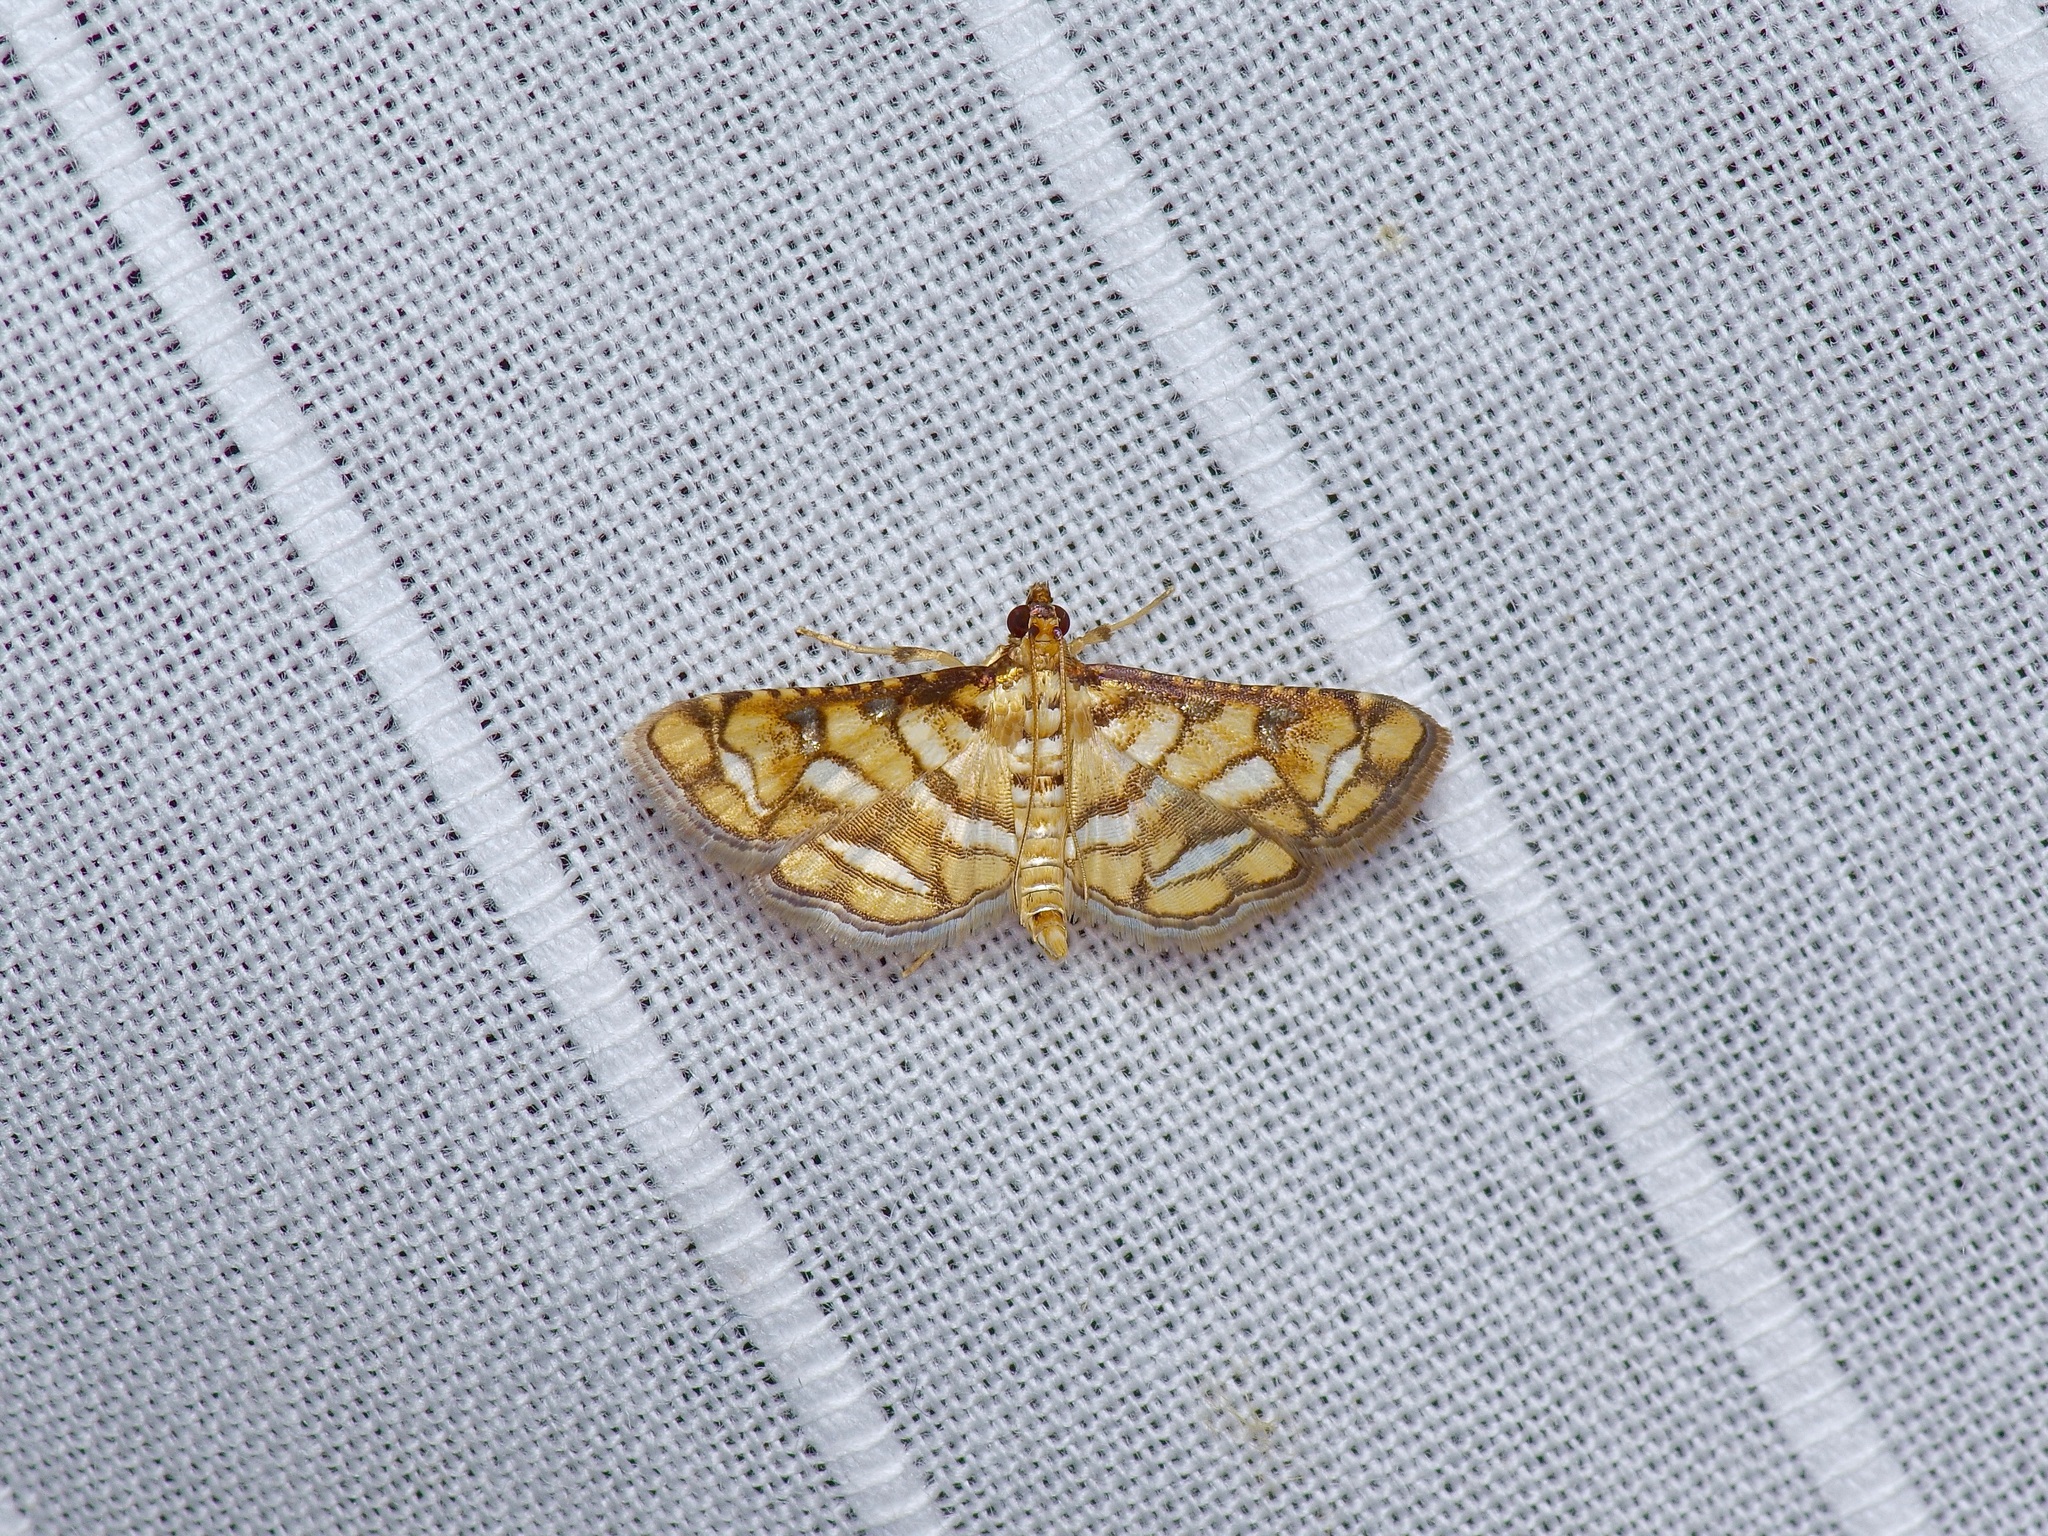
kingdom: Animalia
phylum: Arthropoda
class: Insecta
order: Lepidoptera
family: Crambidae
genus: Hileithia
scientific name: Hileithia magualis
